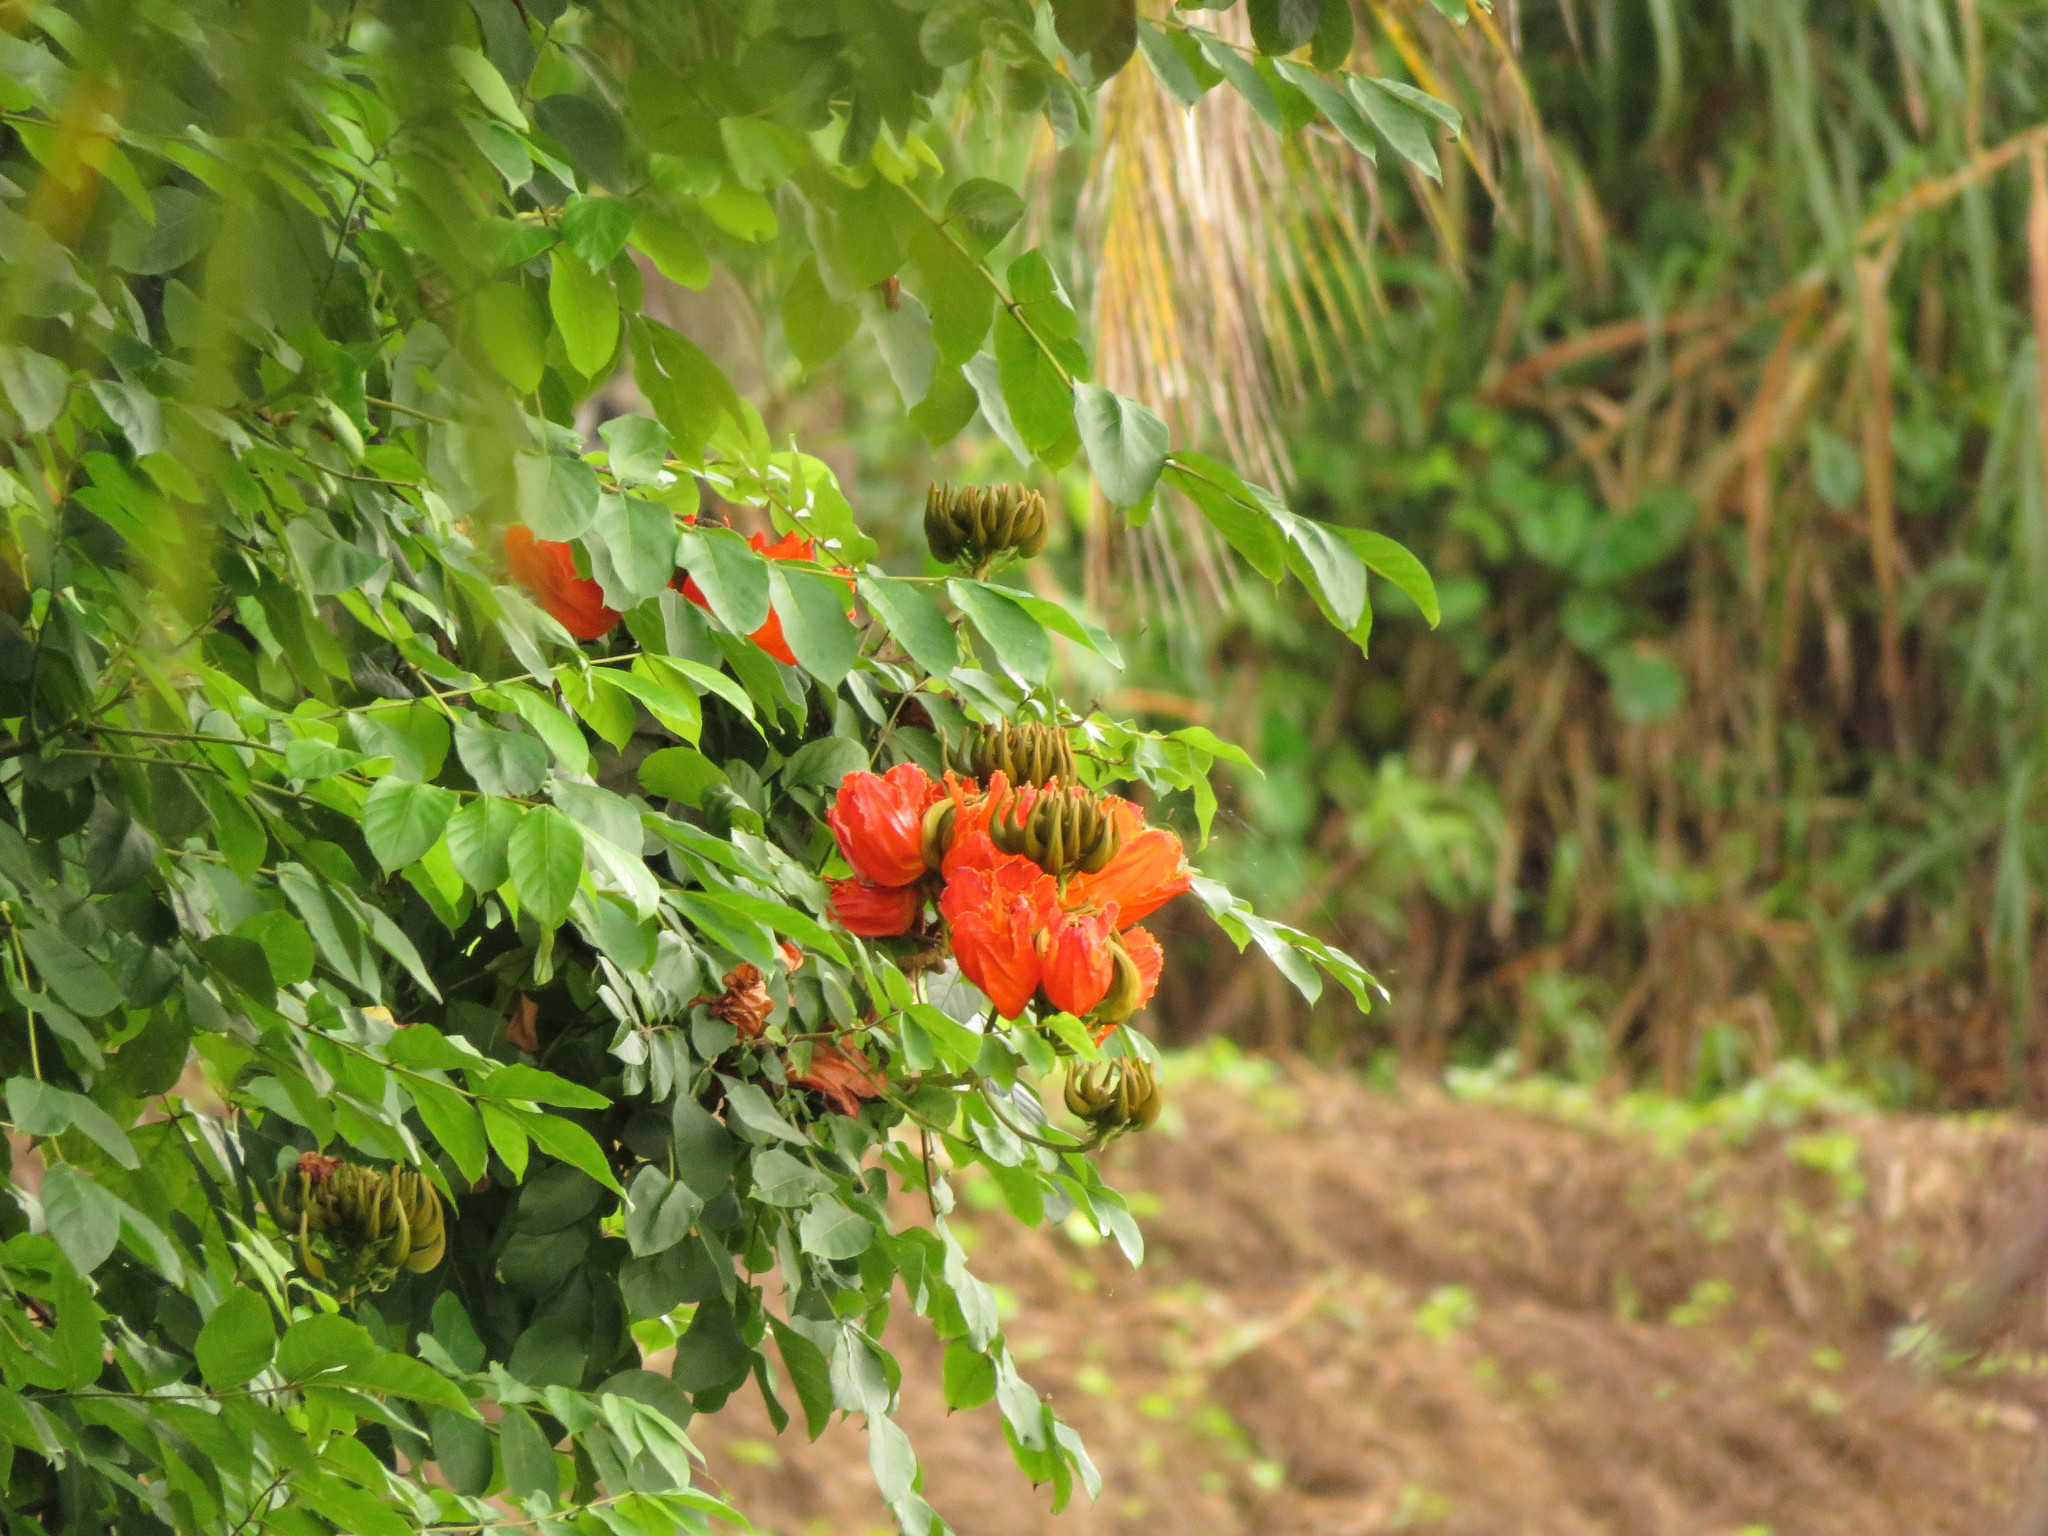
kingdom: Plantae
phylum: Tracheophyta
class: Magnoliopsida
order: Lamiales
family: Bignoniaceae
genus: Spathodea
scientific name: Spathodea campanulata
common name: African tuliptree
